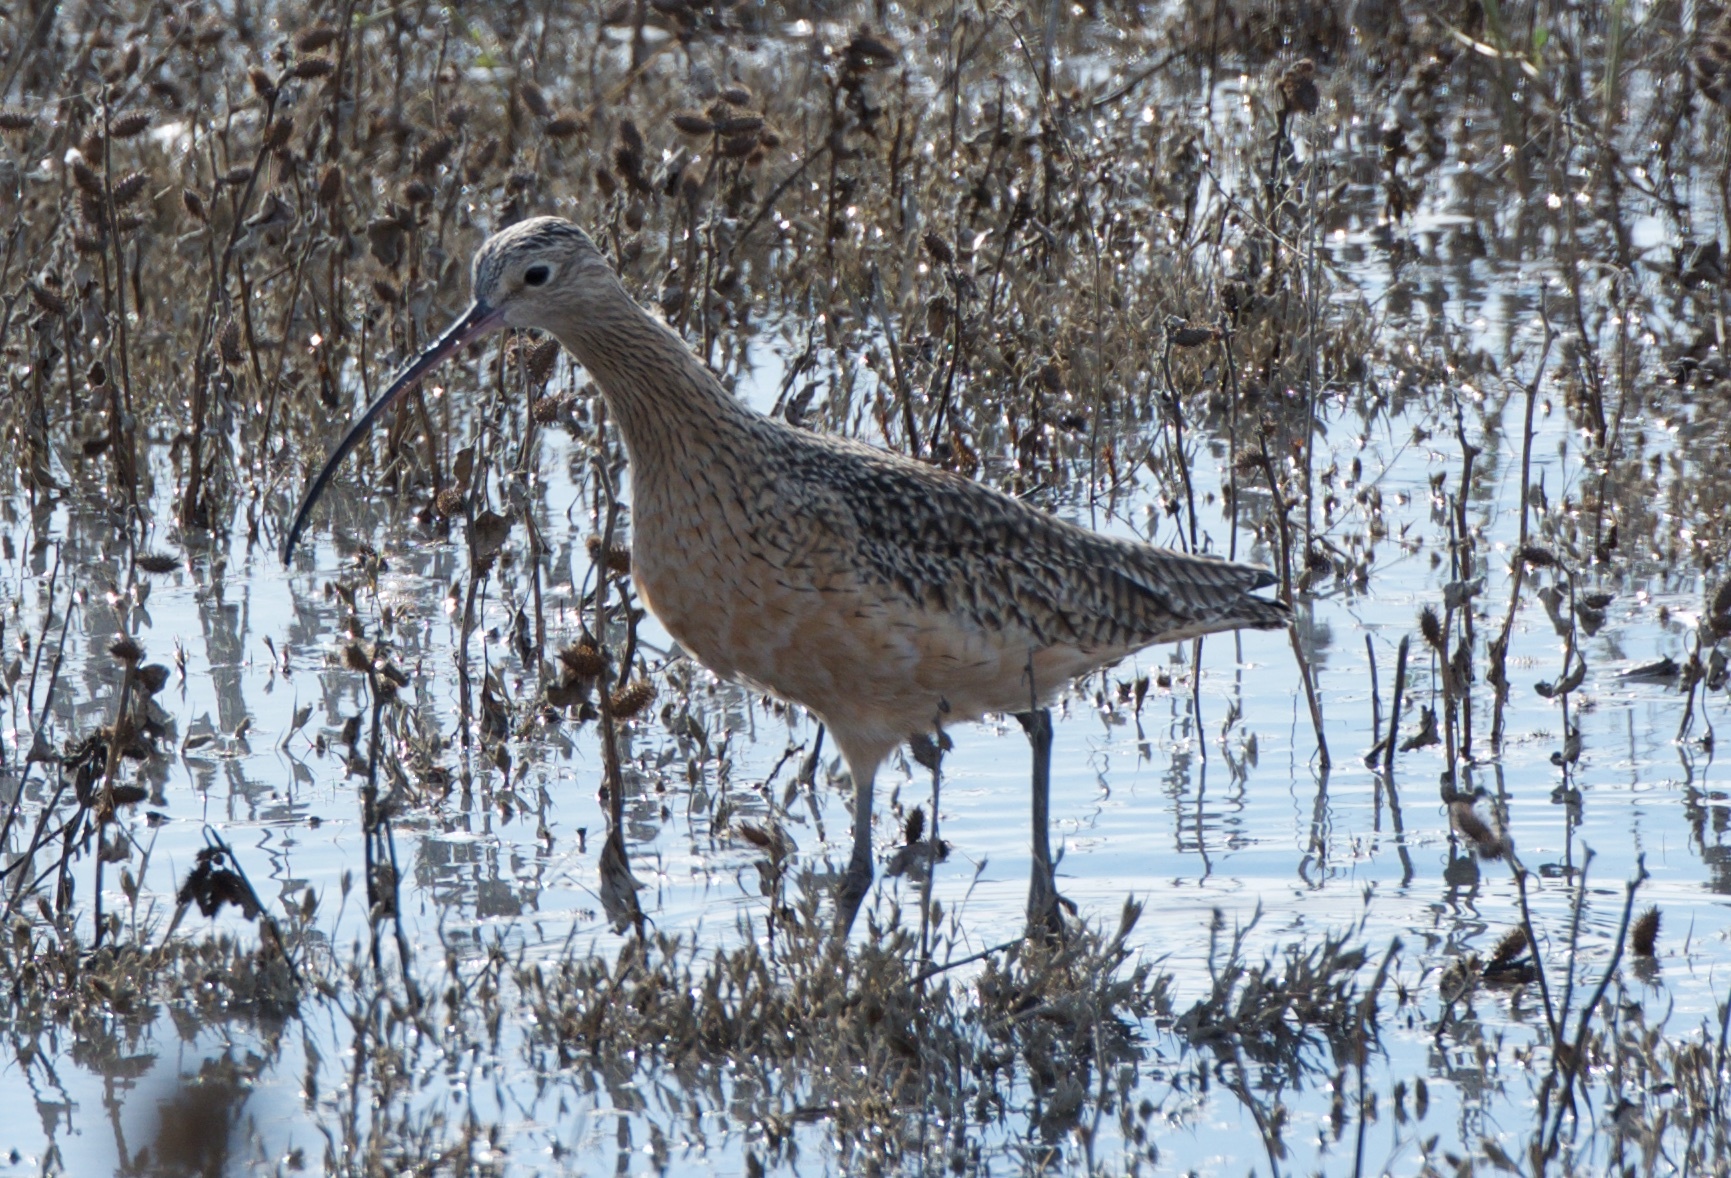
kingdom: Animalia
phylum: Chordata
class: Aves
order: Charadriiformes
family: Scolopacidae
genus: Numenius
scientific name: Numenius americanus
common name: Long-billed curlew
